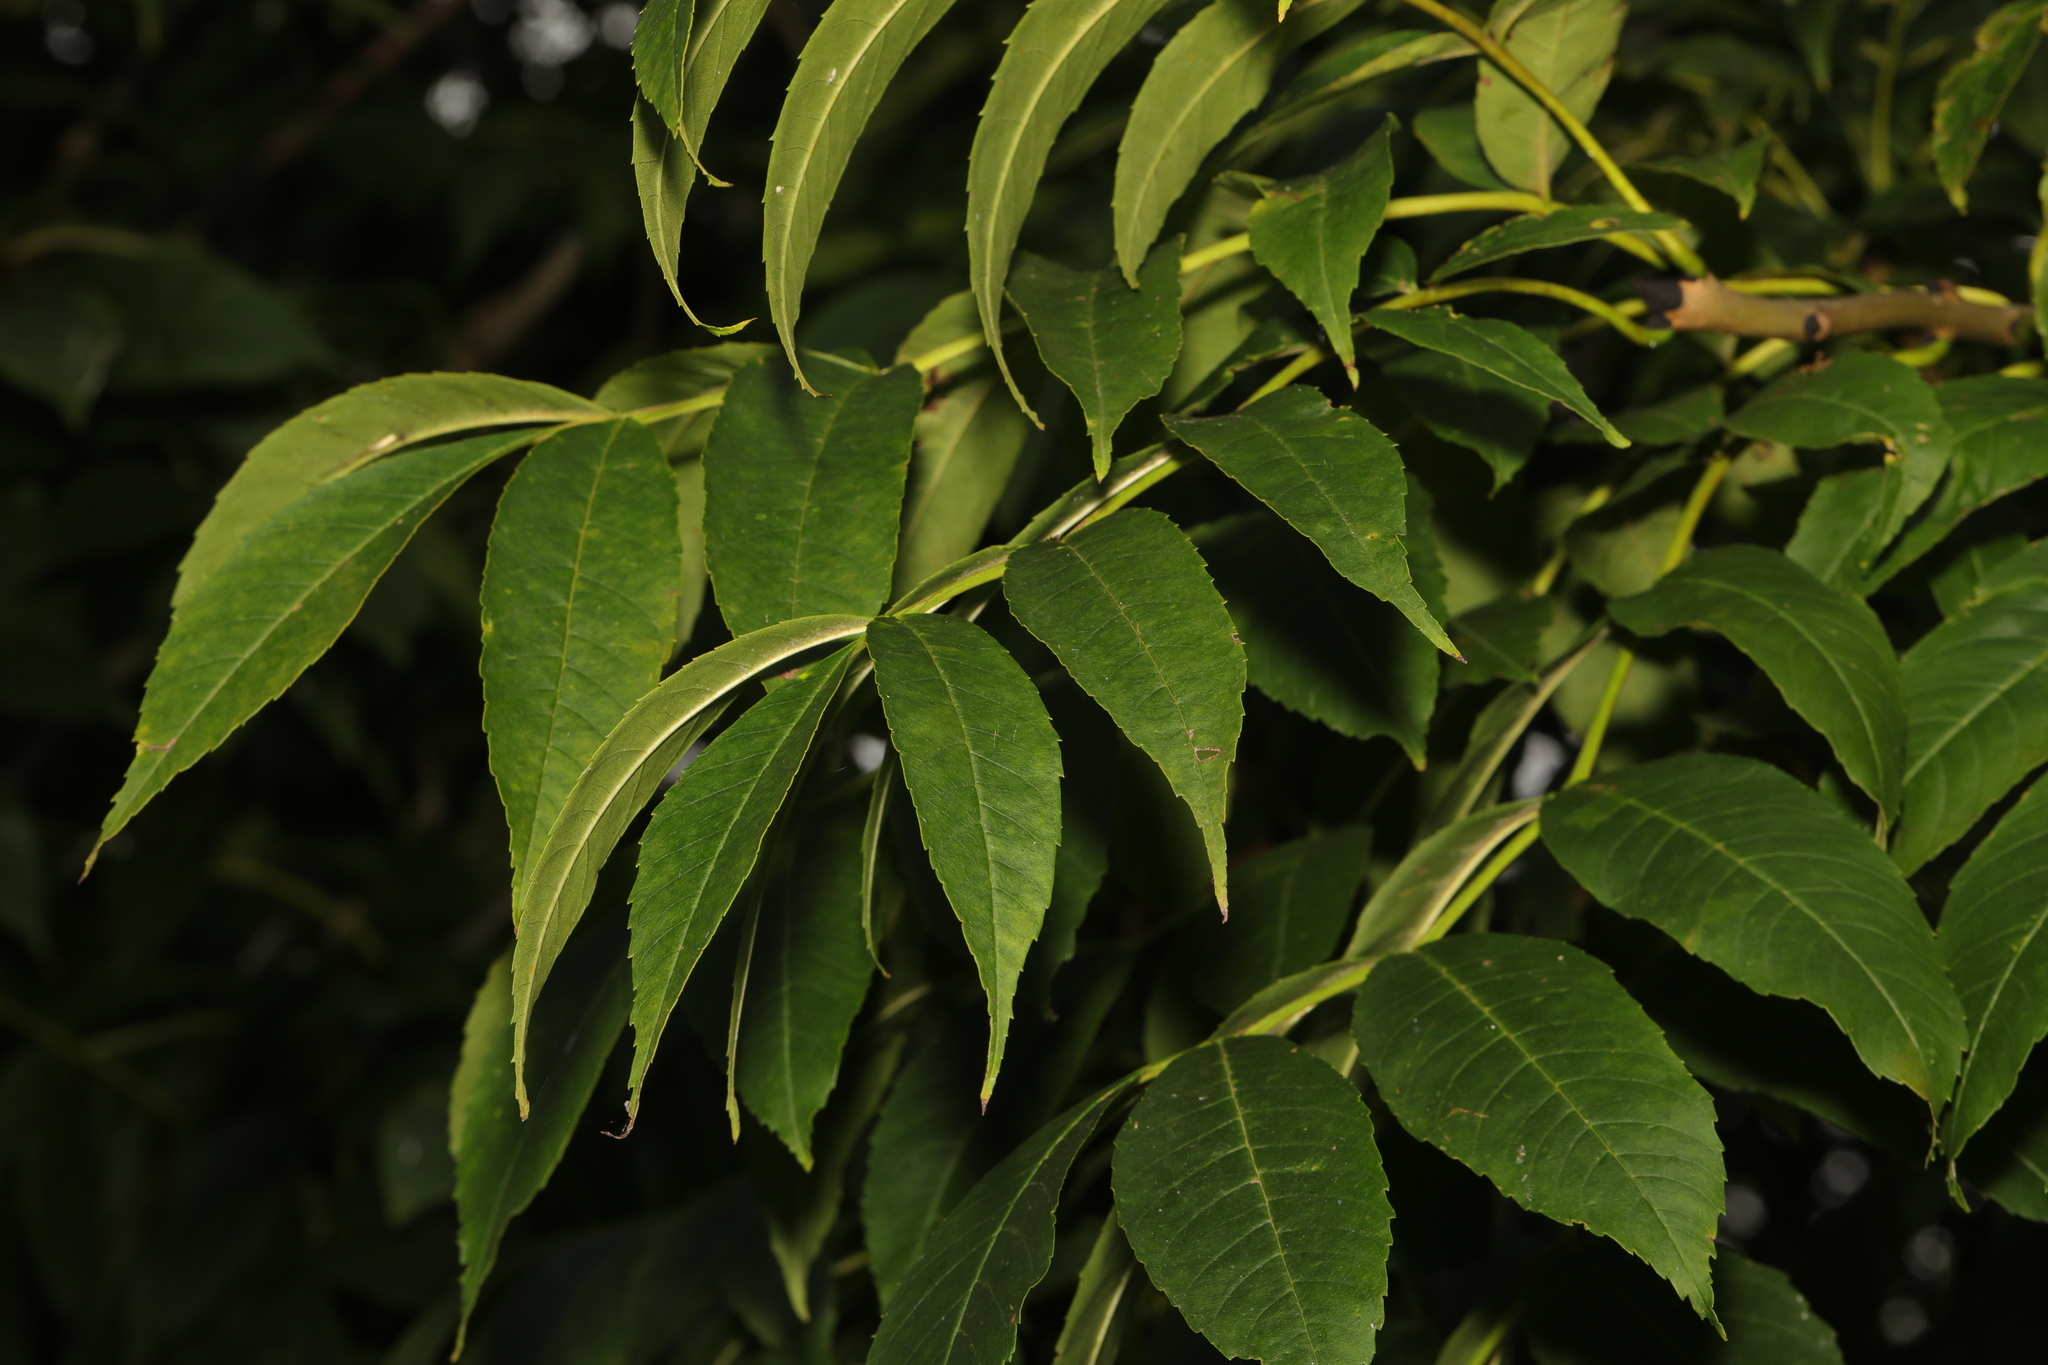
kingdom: Plantae
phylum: Tracheophyta
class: Magnoliopsida
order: Lamiales
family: Oleaceae
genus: Fraxinus
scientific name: Fraxinus excelsior
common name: European ash
